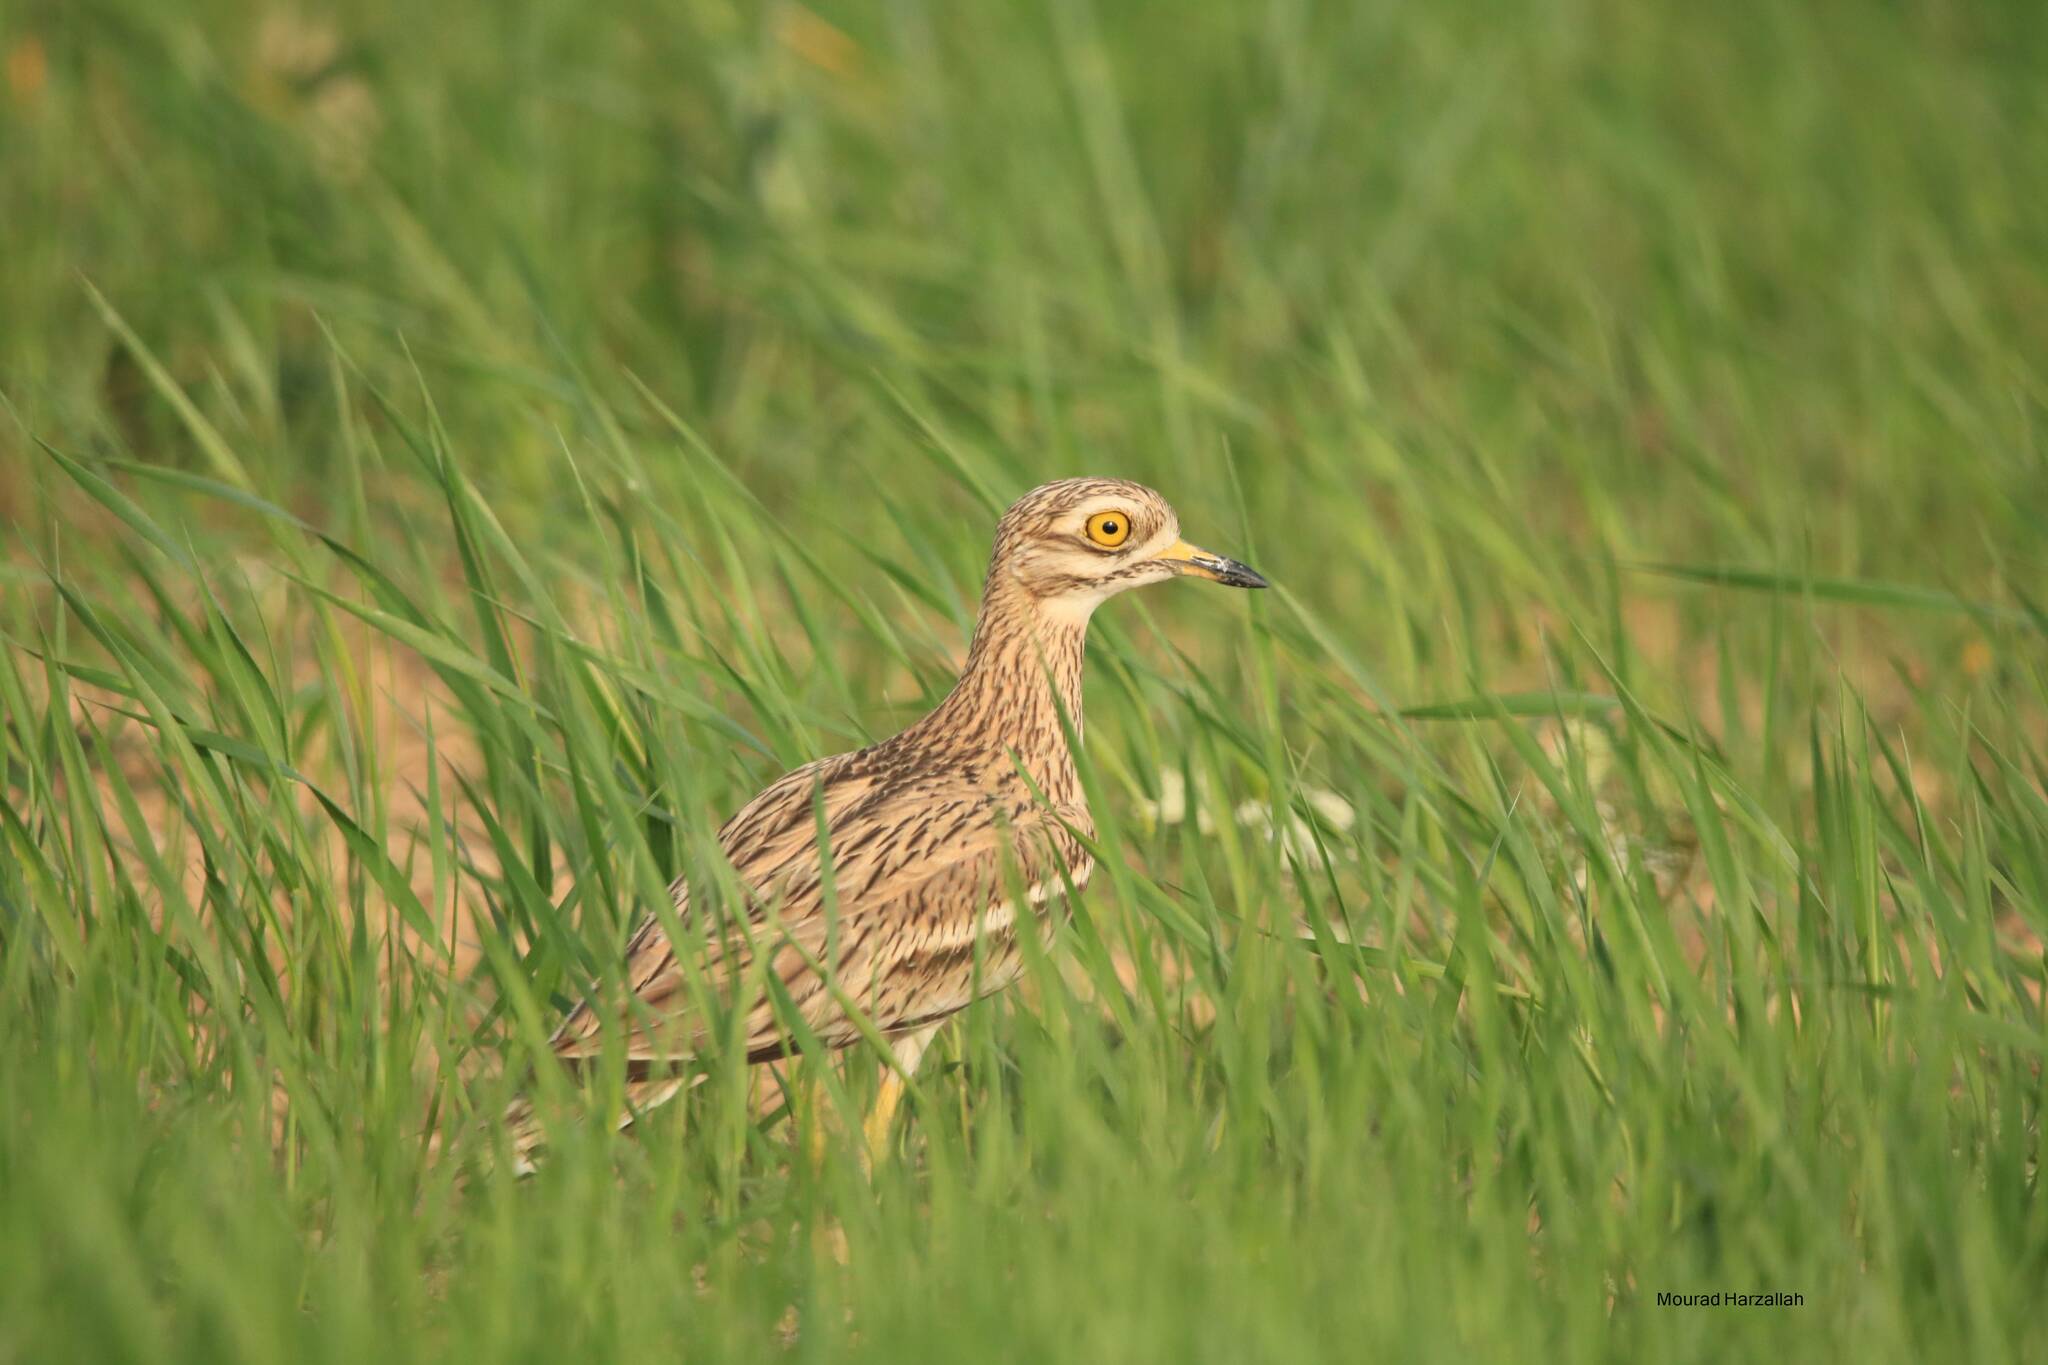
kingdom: Animalia
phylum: Chordata
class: Aves
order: Charadriiformes
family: Burhinidae
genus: Burhinus
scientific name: Burhinus oedicnemus
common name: Eurasian stone-curlew
